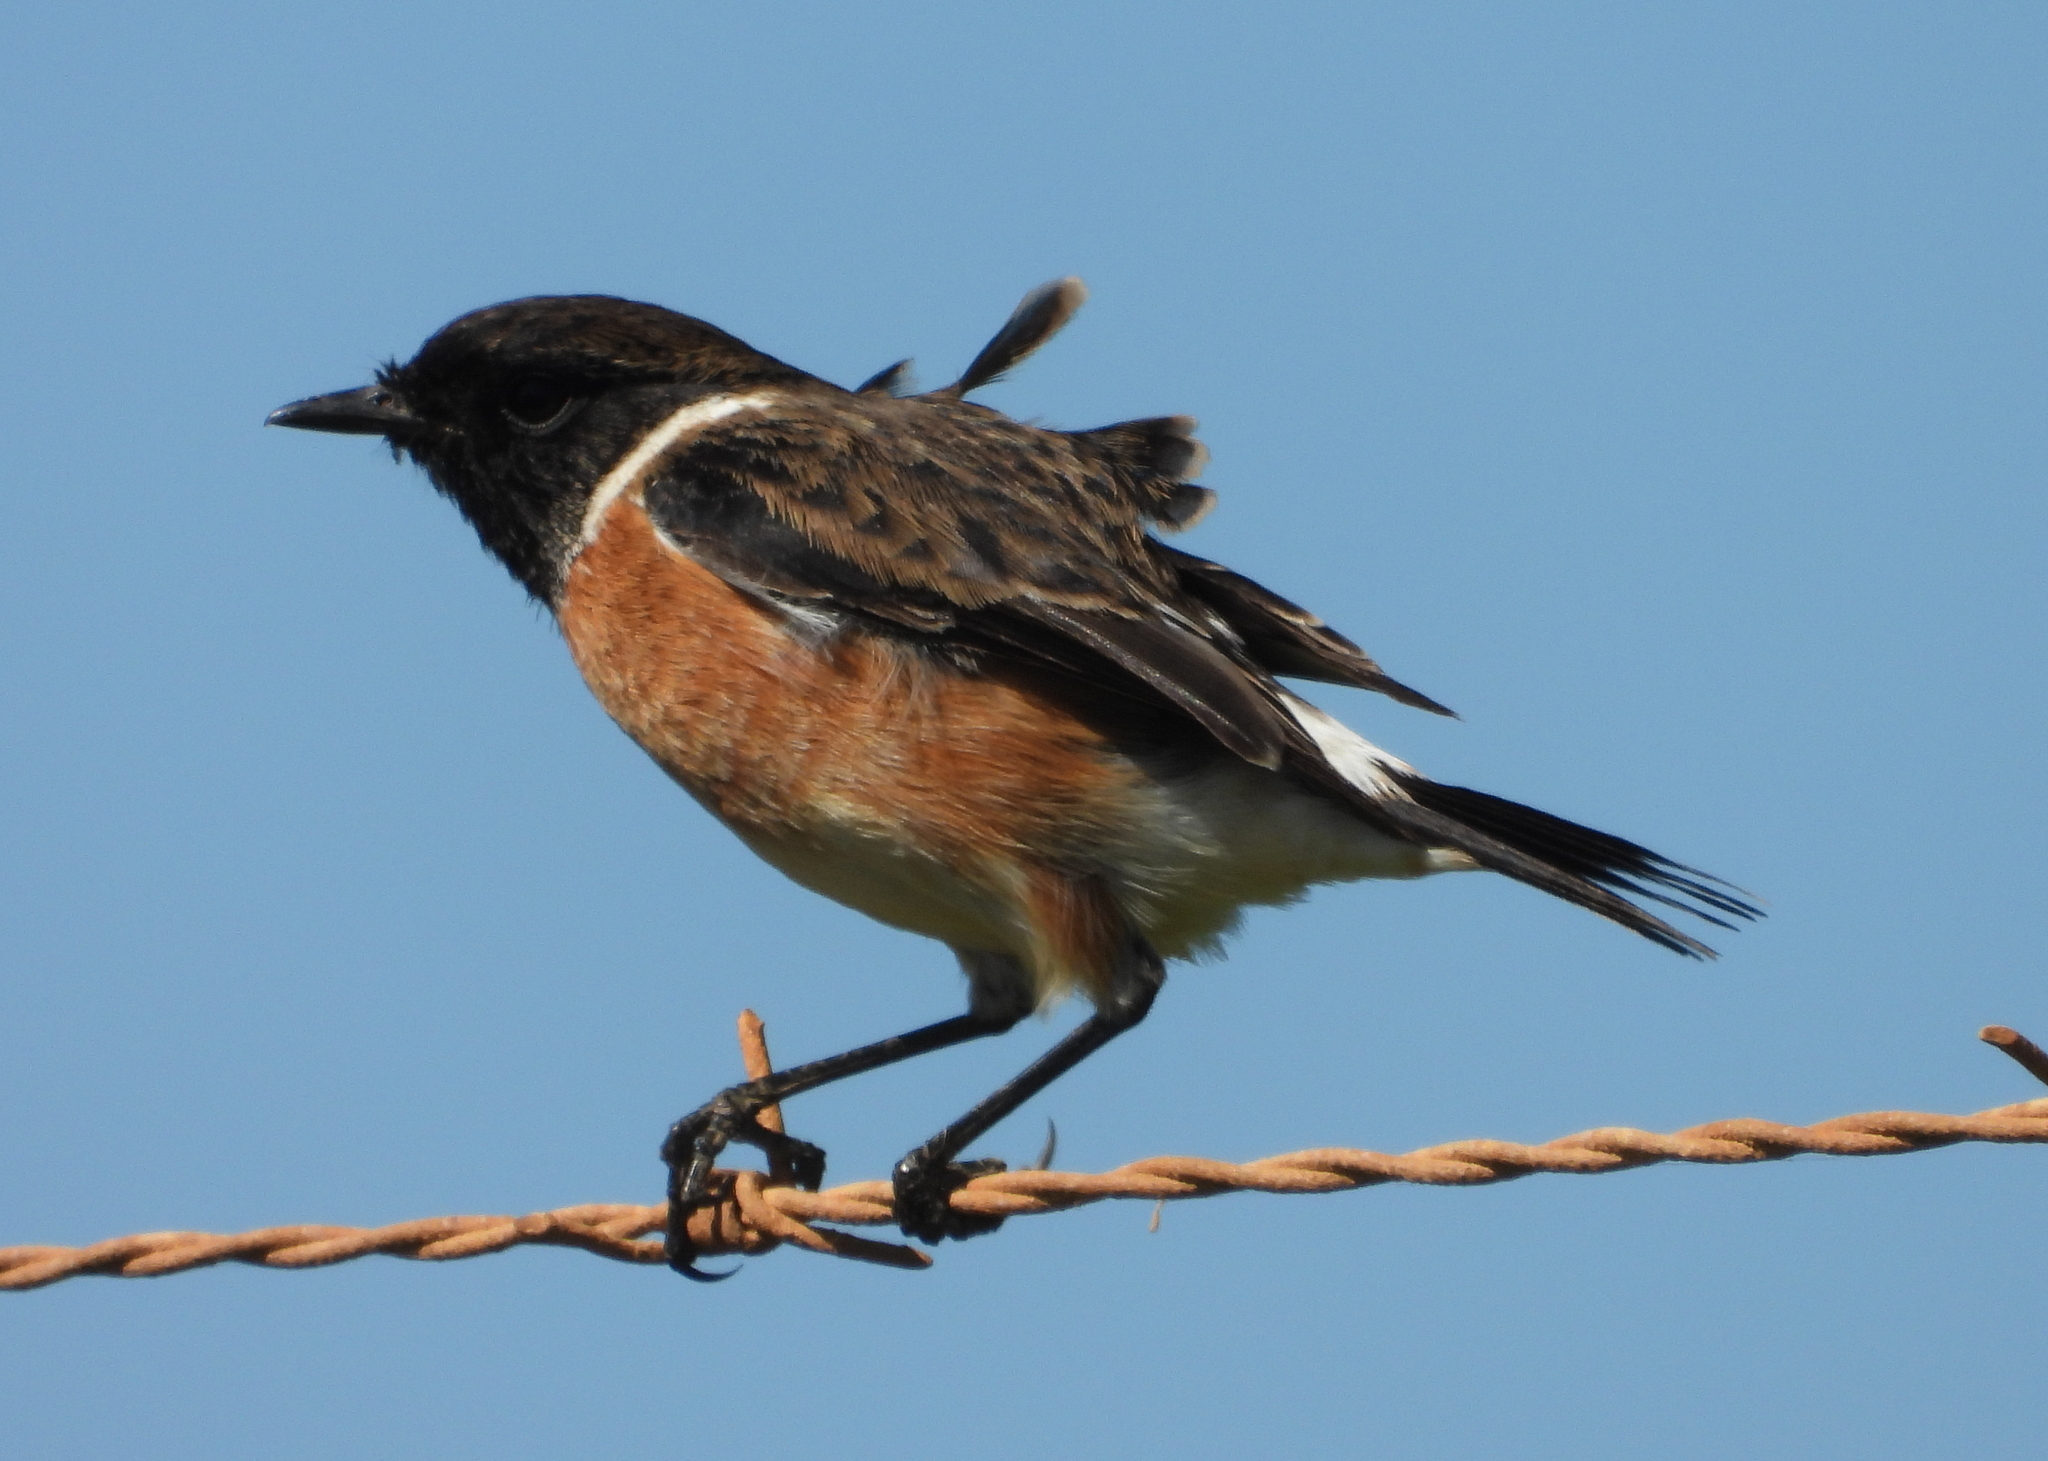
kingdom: Animalia
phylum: Chordata
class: Aves
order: Passeriformes
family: Muscicapidae
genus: Saxicola
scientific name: Saxicola torquatus
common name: African stonechat
